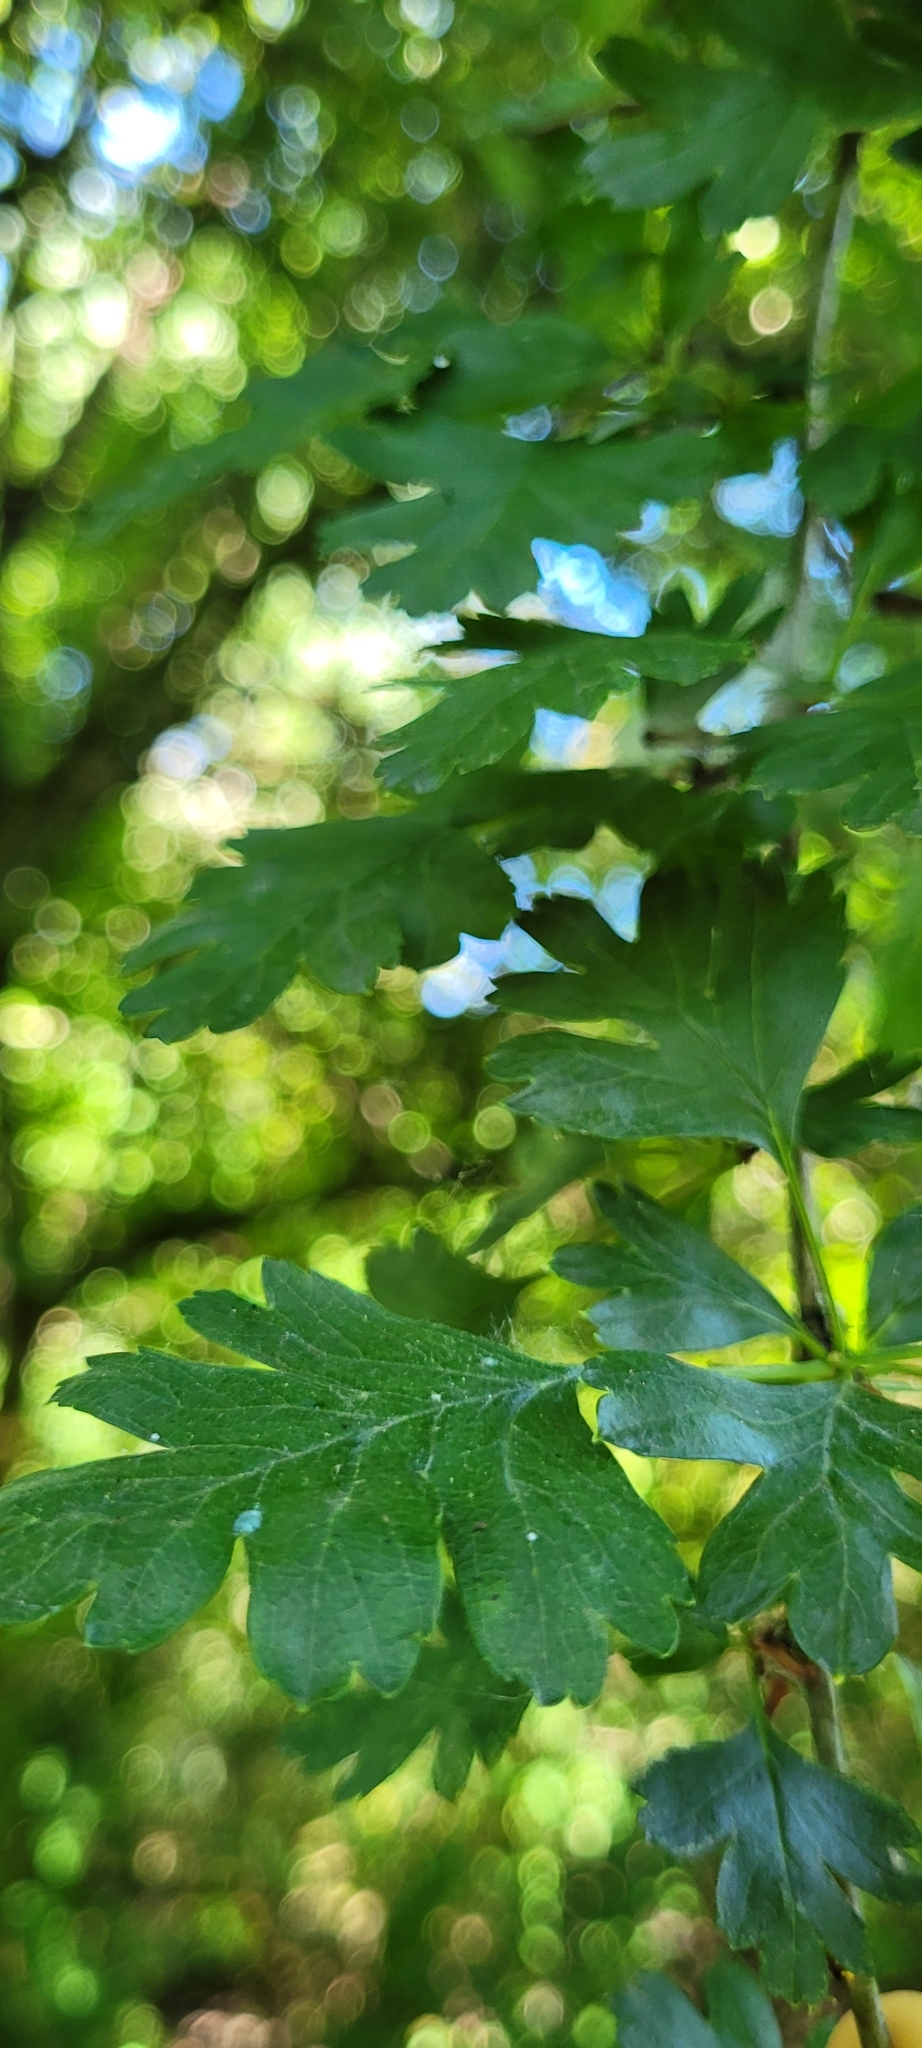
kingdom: Plantae
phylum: Tracheophyta
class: Magnoliopsida
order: Rosales
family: Rosaceae
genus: Crataegus
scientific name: Crataegus monogyna
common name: Hawthorn
